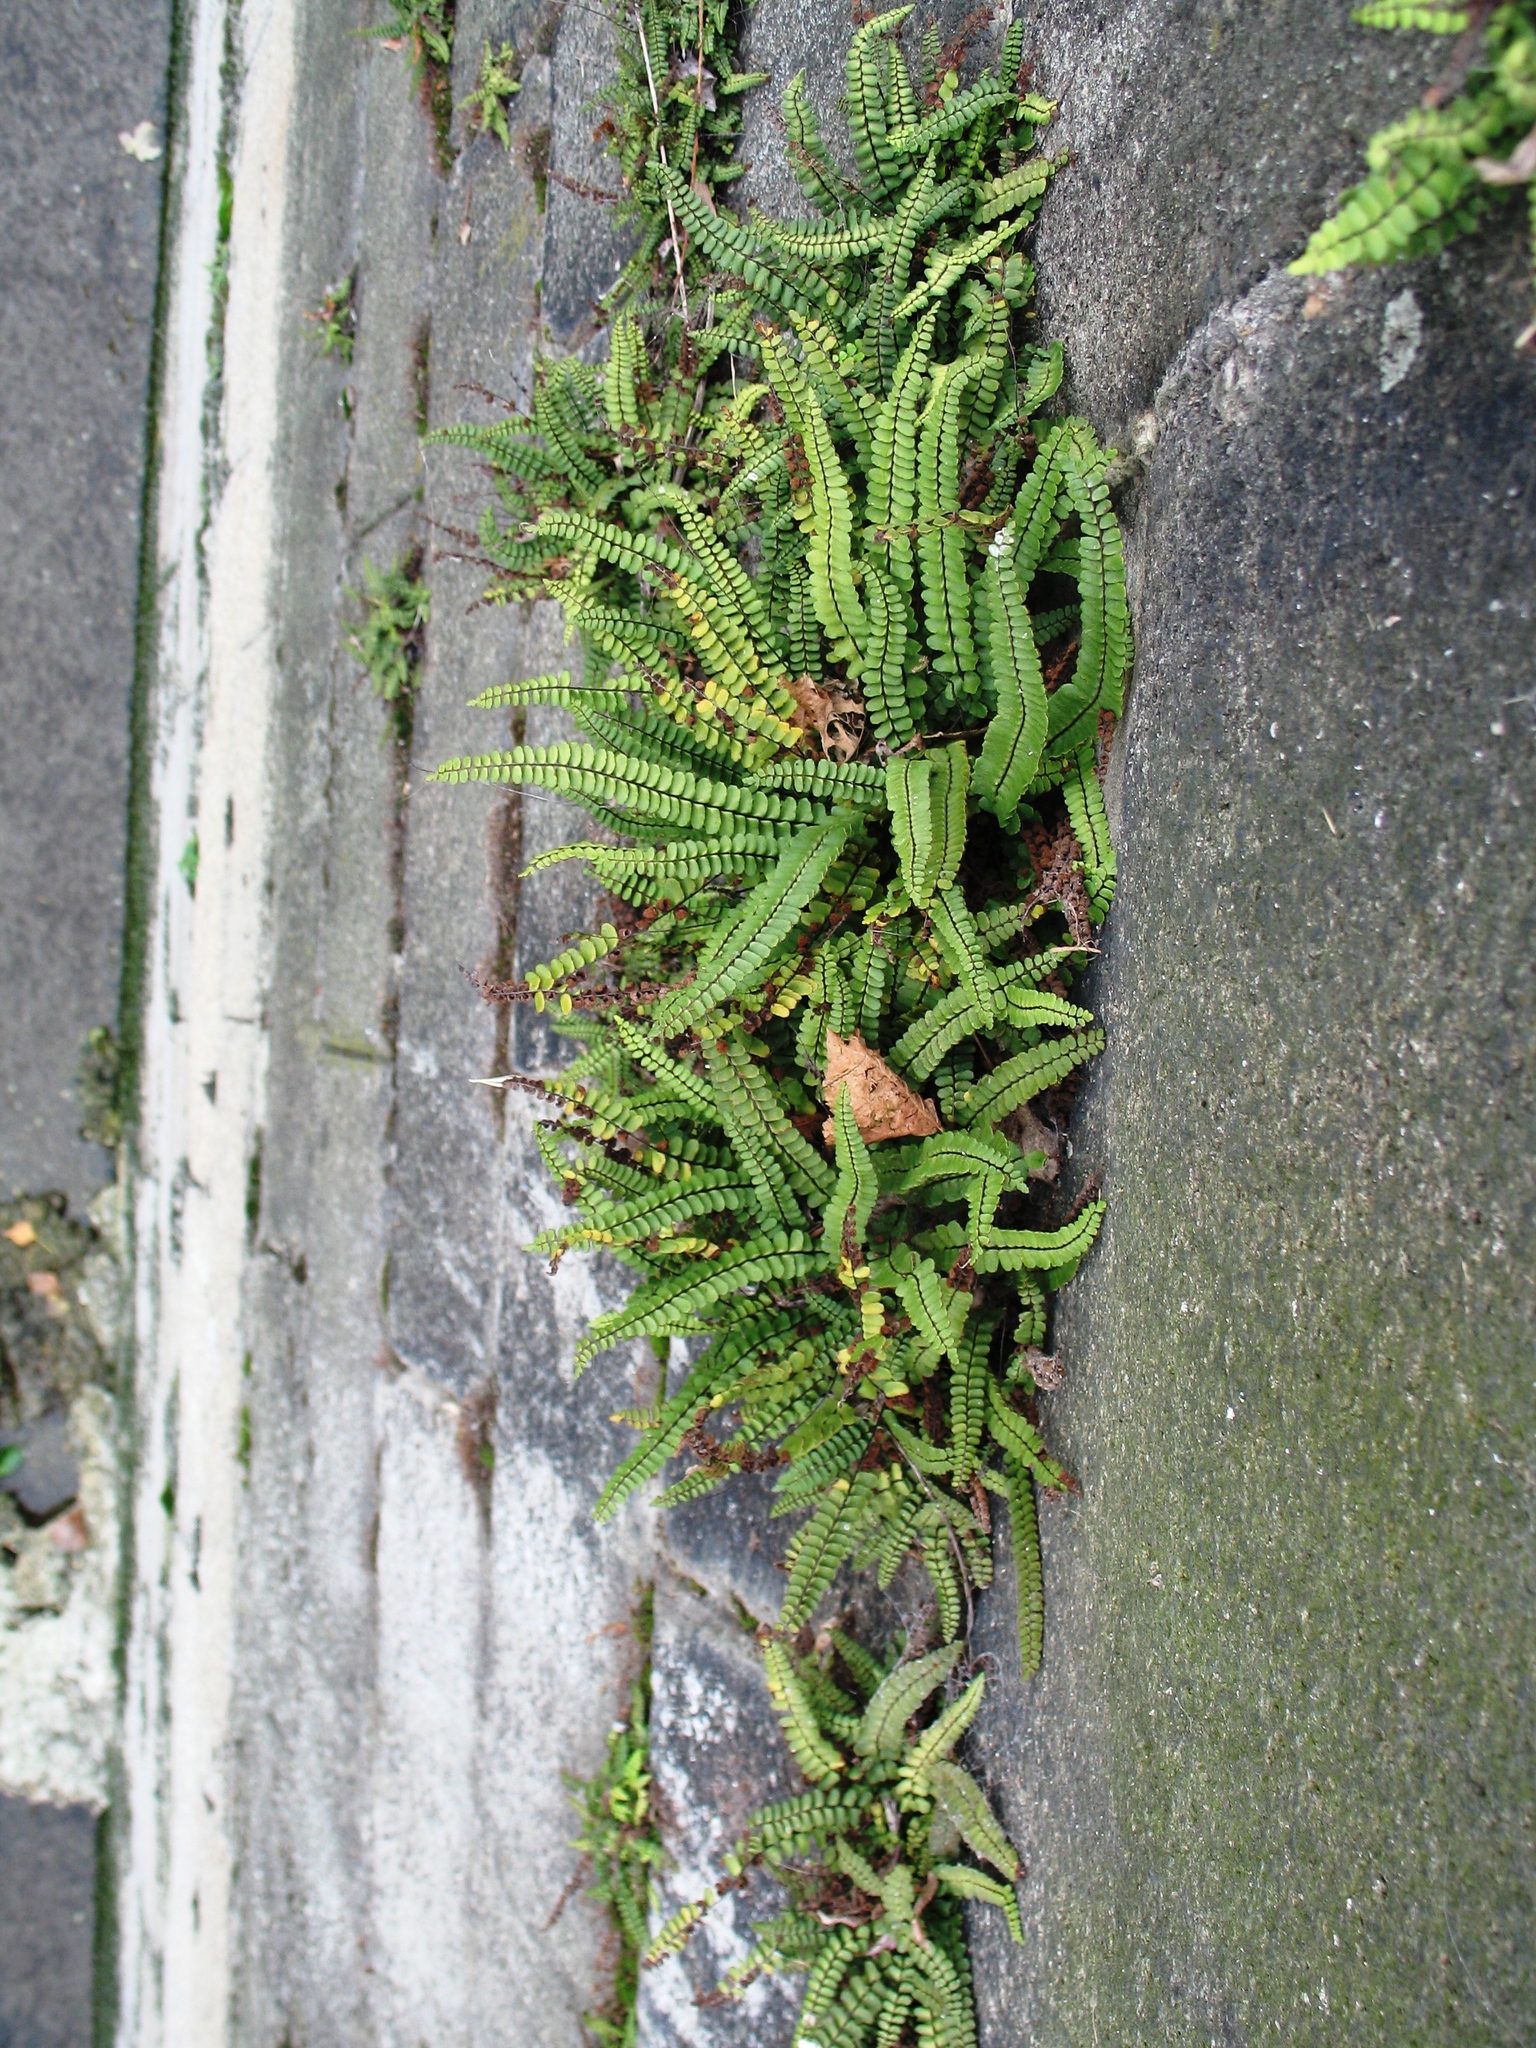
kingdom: Plantae
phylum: Tracheophyta
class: Polypodiopsida
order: Polypodiales
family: Aspleniaceae
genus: Asplenium
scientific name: Asplenium trichomanes
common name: Maidenhair spleenwort
